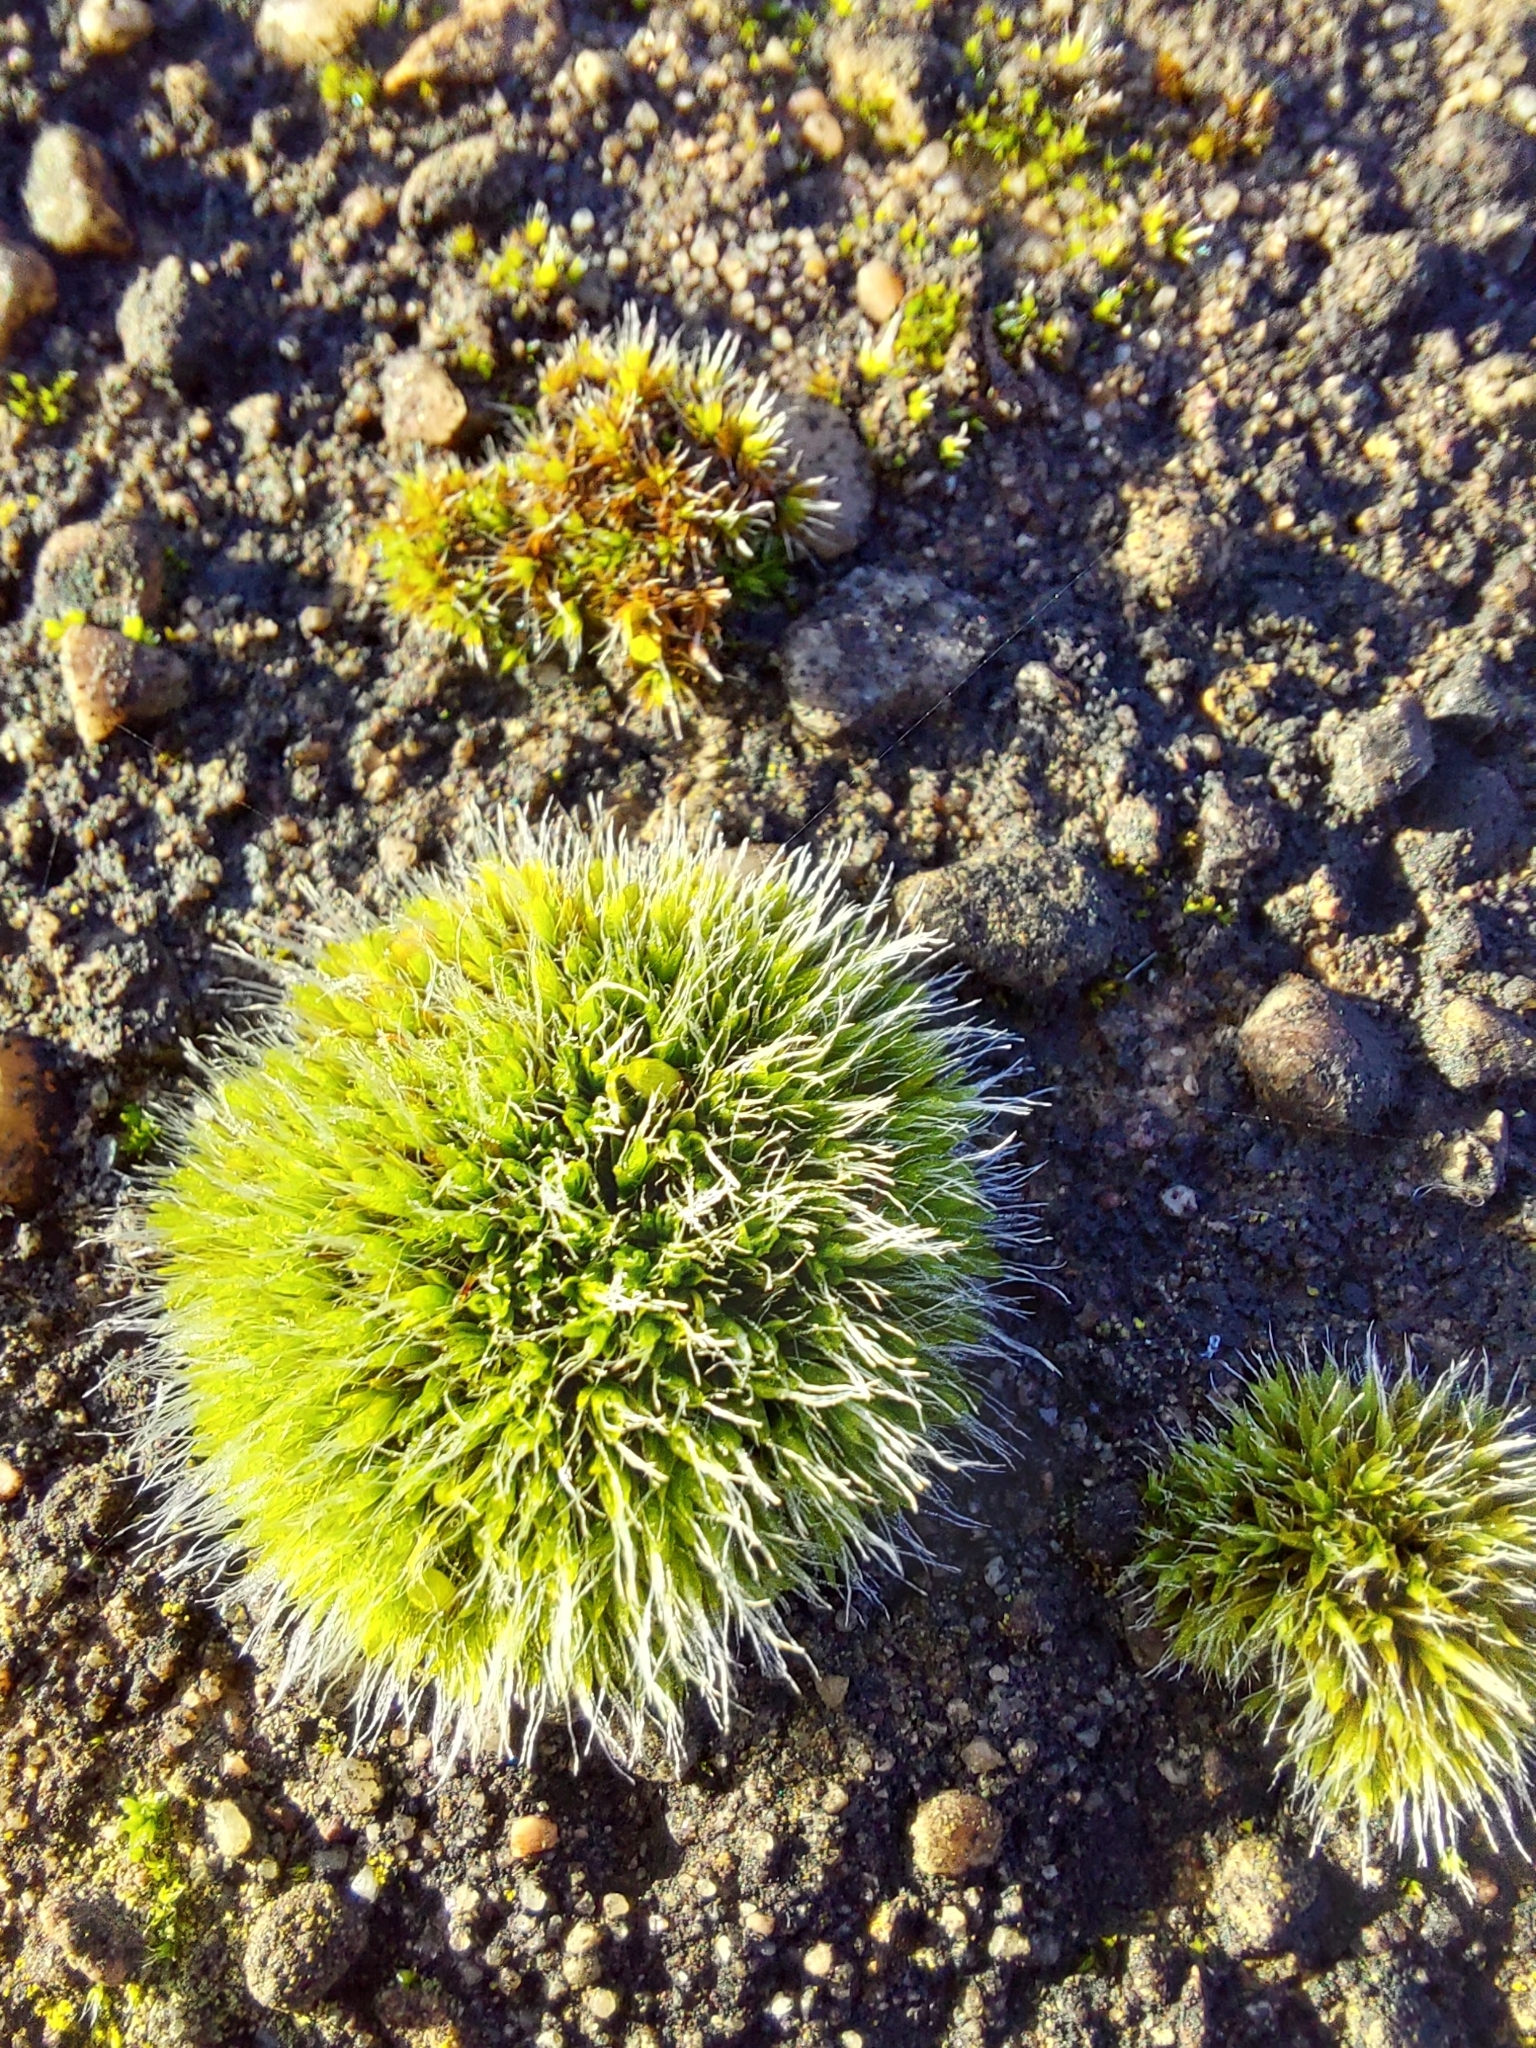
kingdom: Plantae
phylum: Bryophyta
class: Bryopsida
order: Grimmiales
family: Grimmiaceae
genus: Grimmia
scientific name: Grimmia pulvinata
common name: Grey-cushioned grimmia
